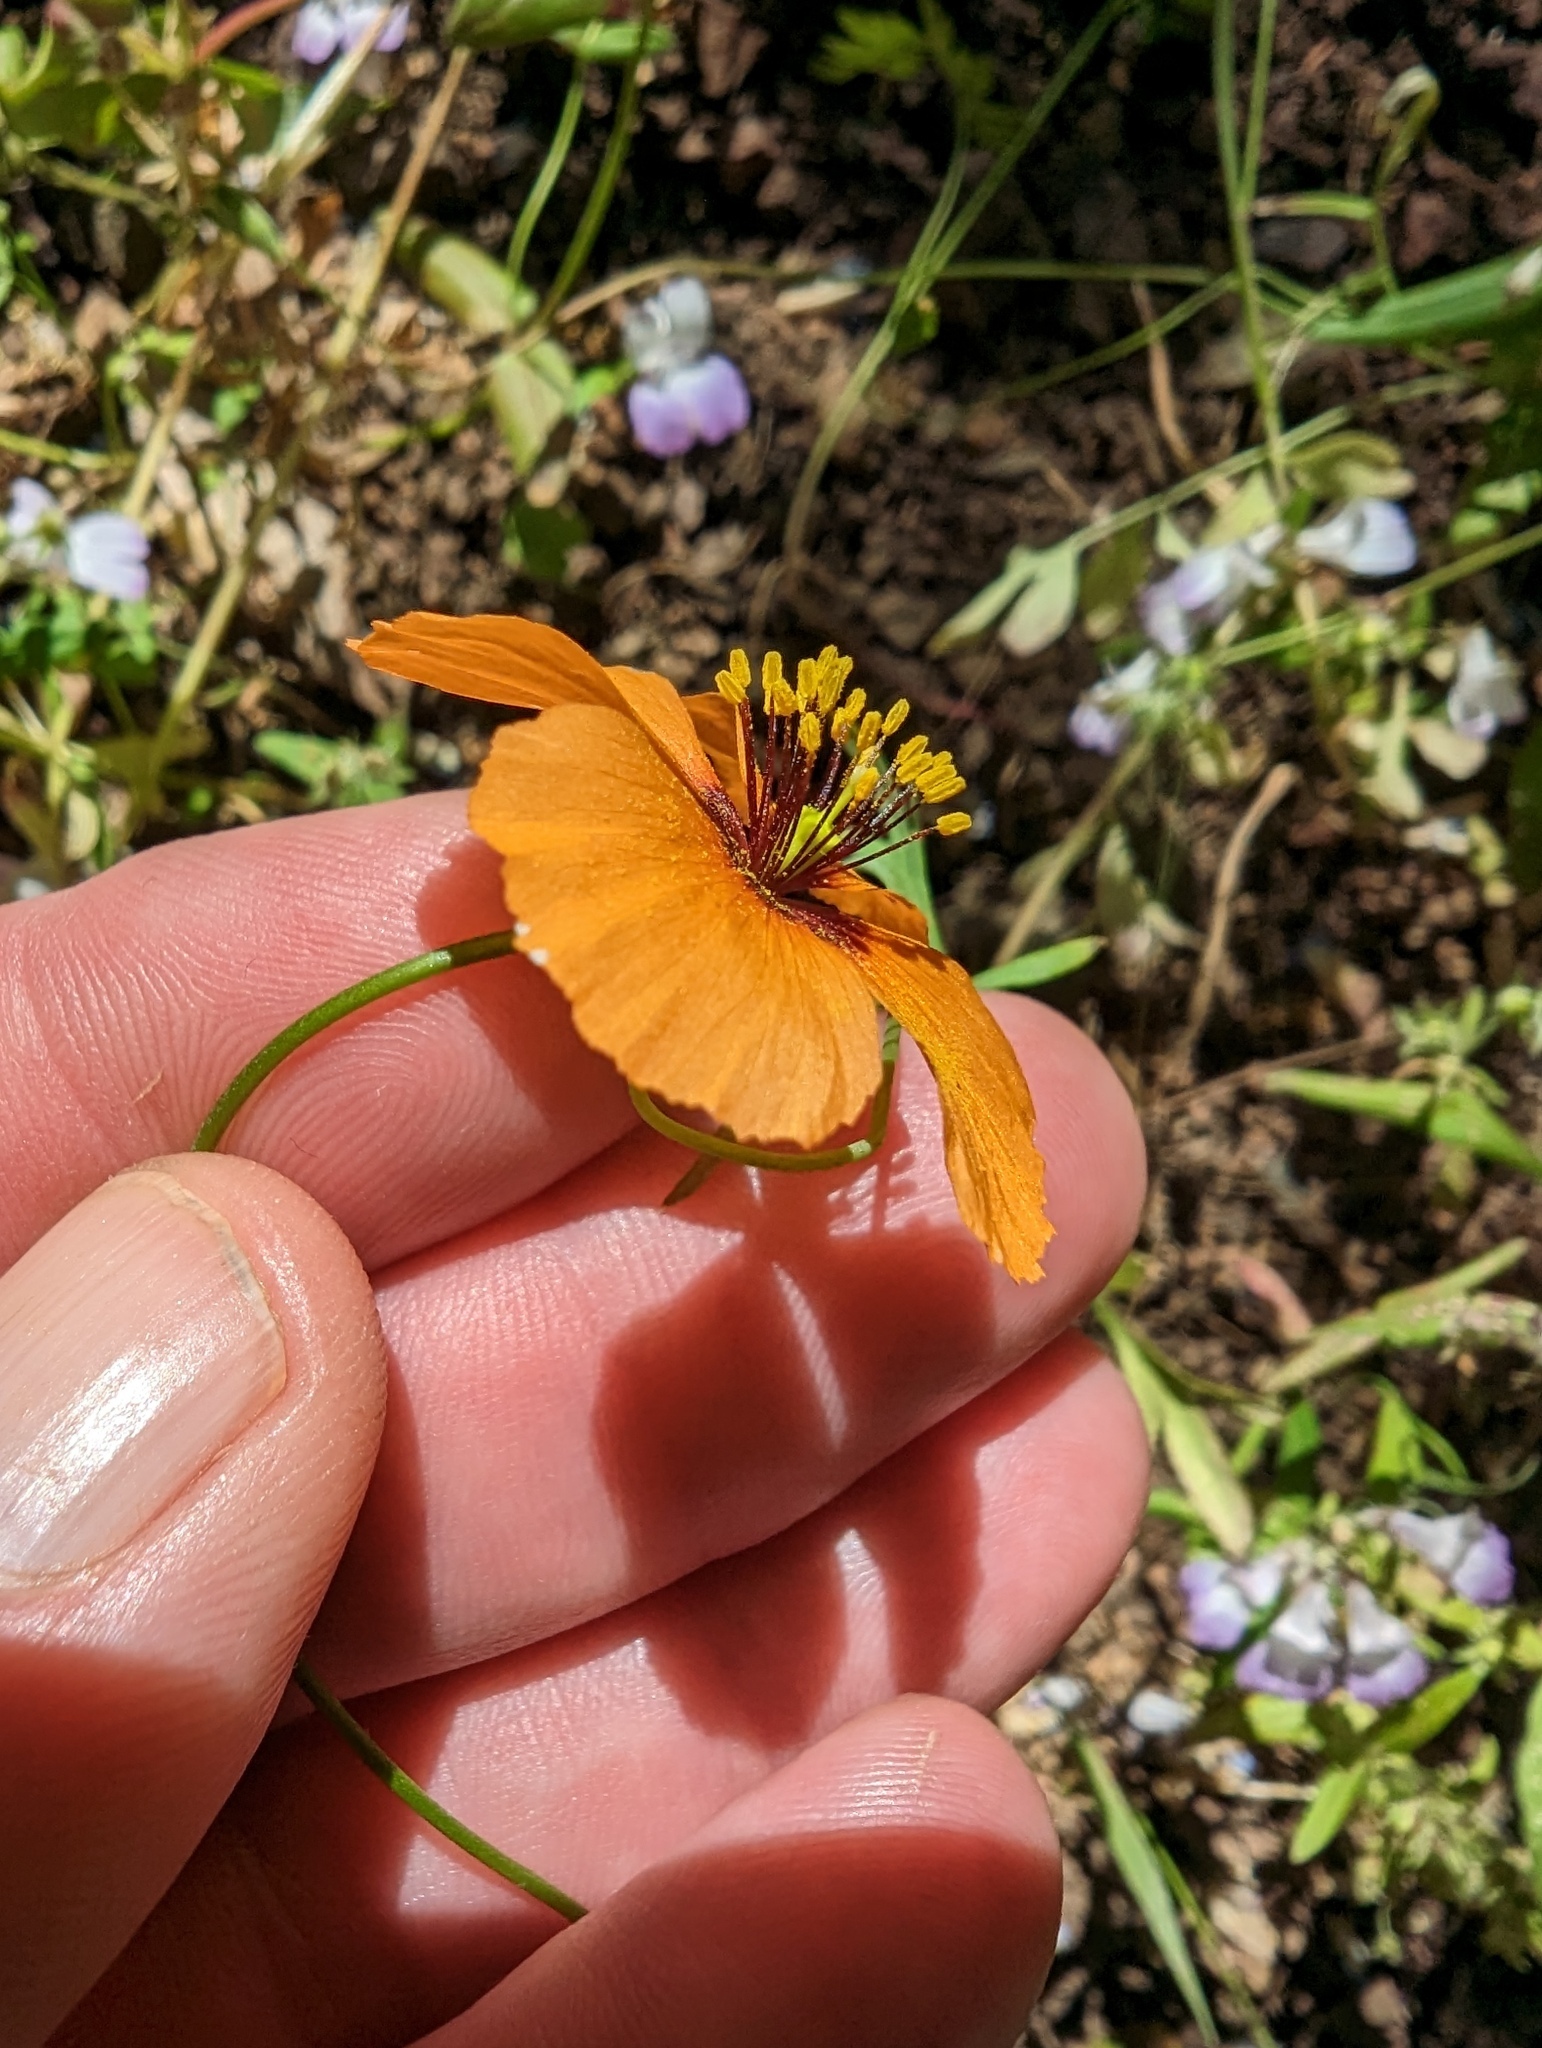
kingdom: Plantae
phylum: Tracheophyta
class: Magnoliopsida
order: Ranunculales
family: Papaveraceae
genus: Stylomecon
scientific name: Stylomecon heterophylla
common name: Flaming-poppy
